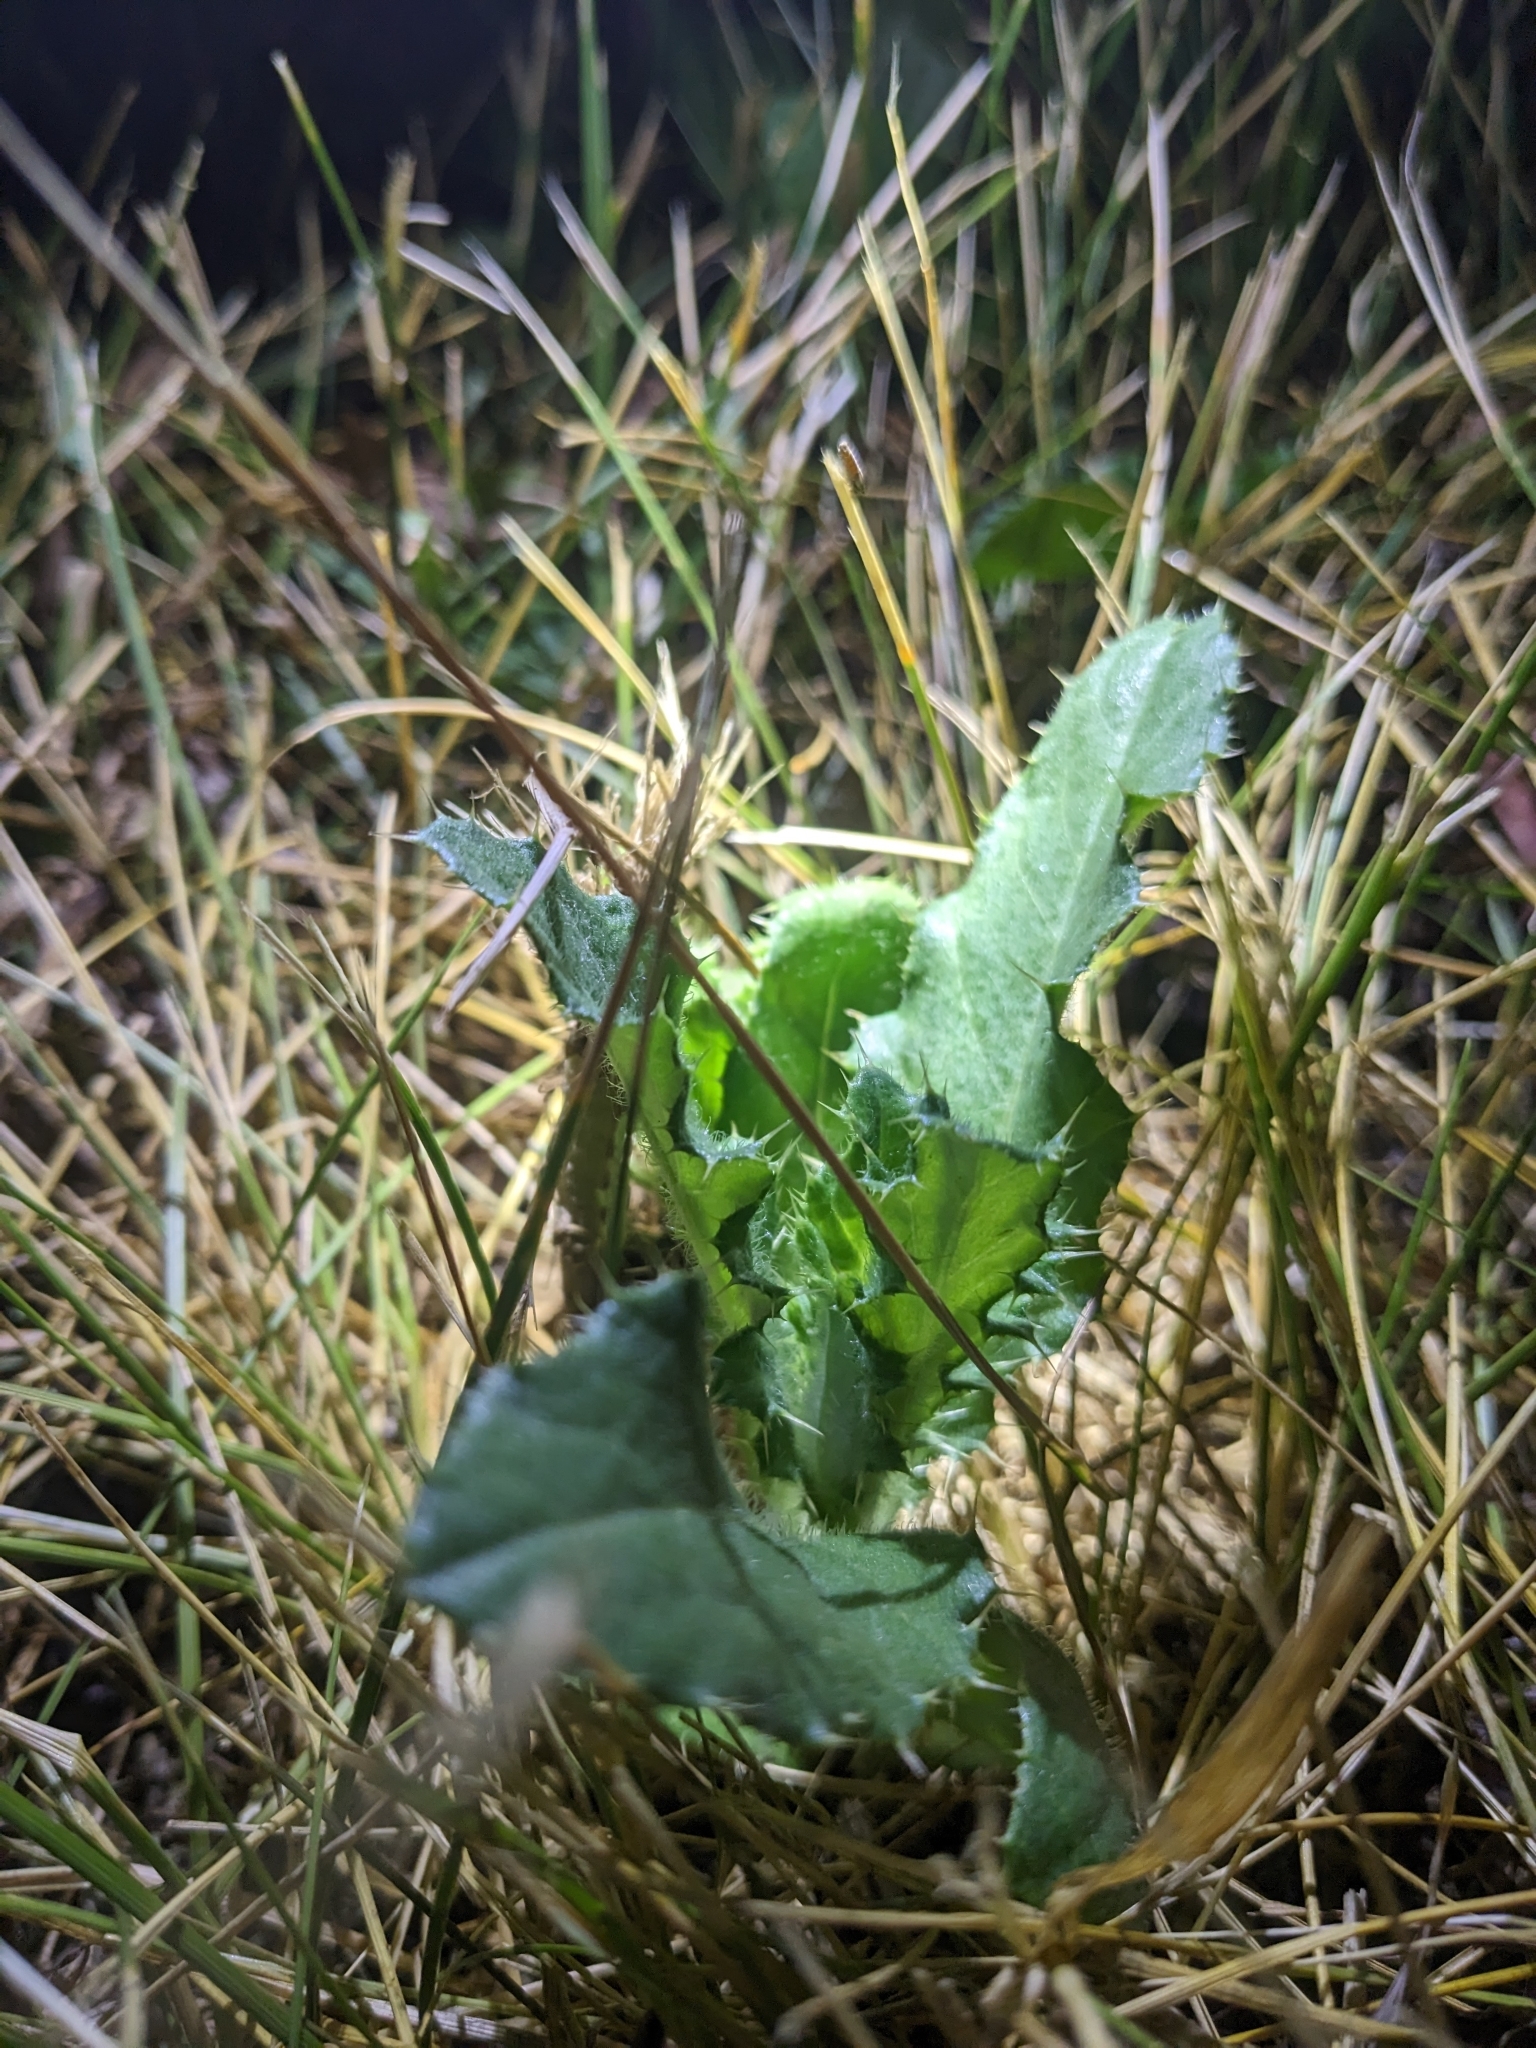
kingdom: Plantae
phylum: Tracheophyta
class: Magnoliopsida
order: Asterales
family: Asteraceae
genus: Cirsium
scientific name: Cirsium arvense
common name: Creeping thistle
